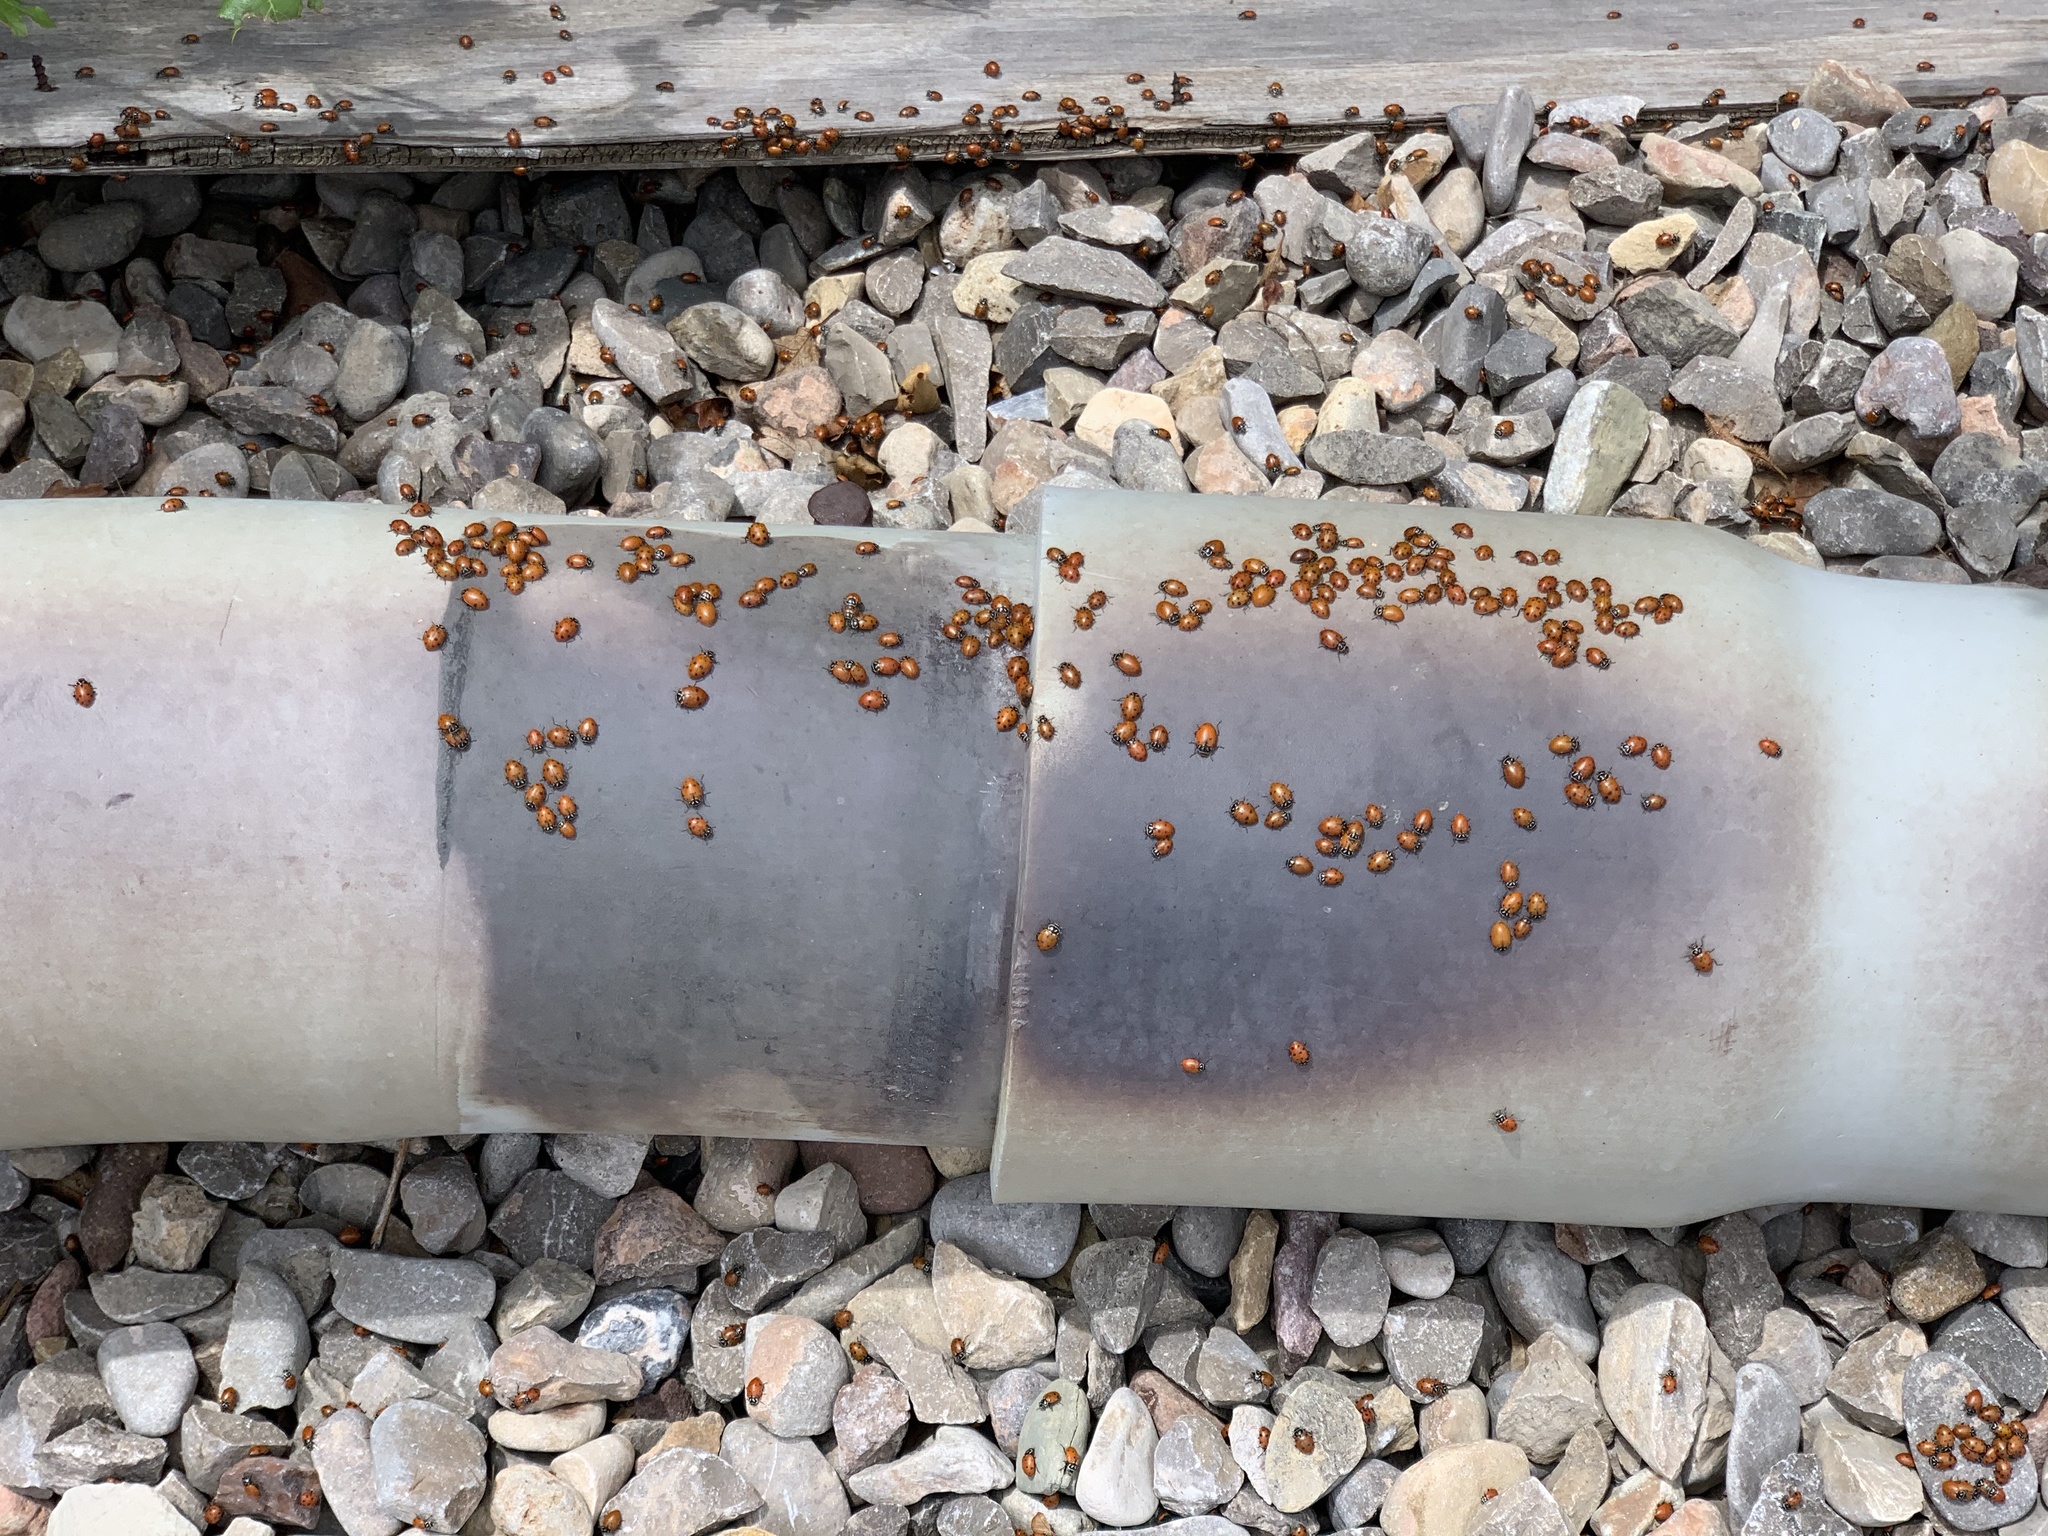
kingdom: Animalia
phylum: Arthropoda
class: Insecta
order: Coleoptera
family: Coccinellidae
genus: Hippodamia
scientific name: Hippodamia convergens
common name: Convergent lady beetle
